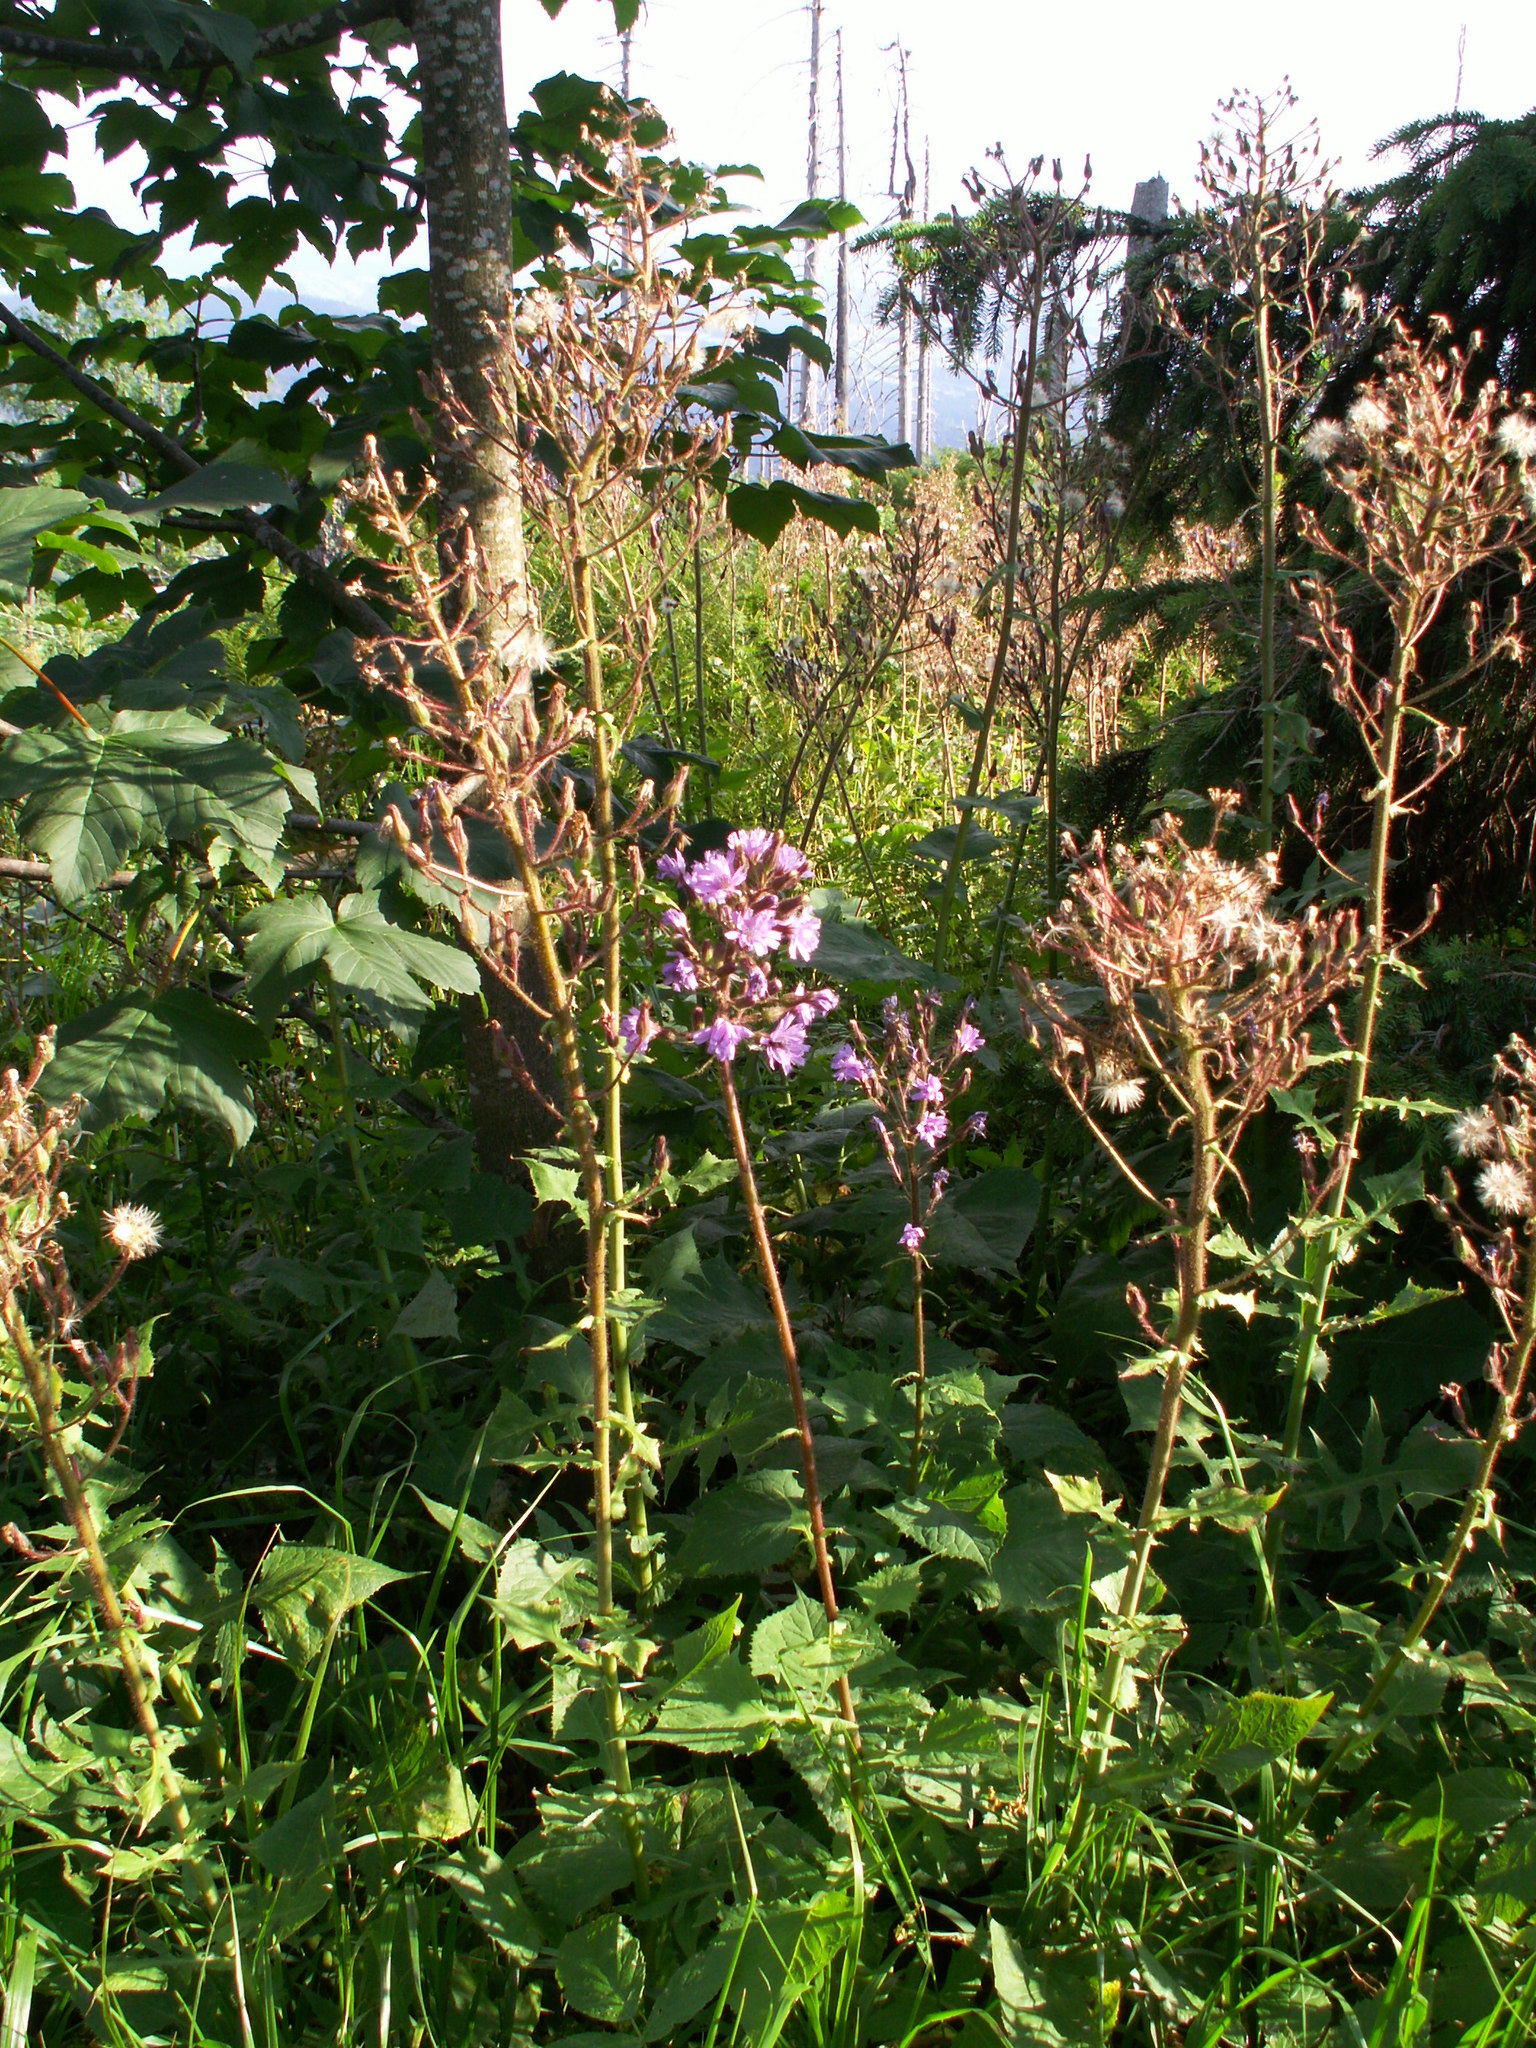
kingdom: Plantae
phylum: Tracheophyta
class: Magnoliopsida
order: Asterales
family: Asteraceae
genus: Cicerbita
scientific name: Cicerbita alpina
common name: Alpine blue-sow-thistle
